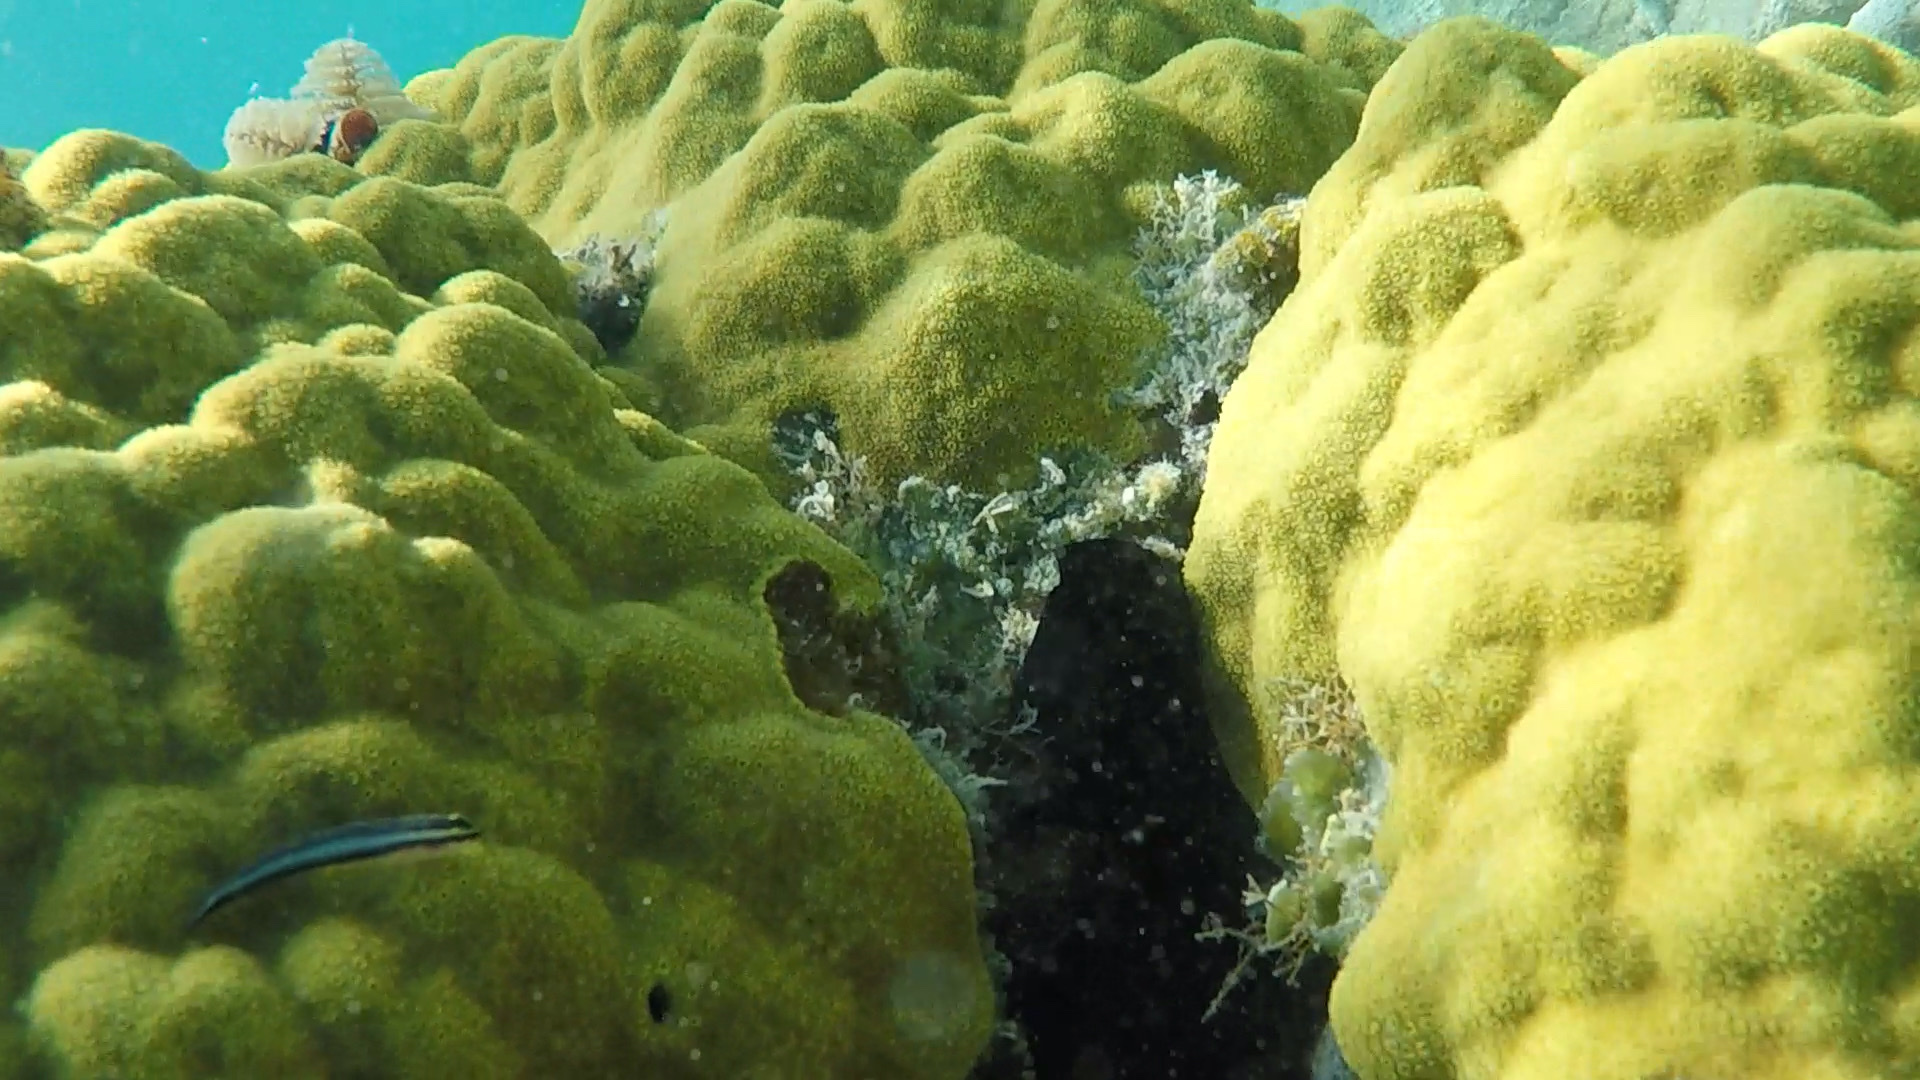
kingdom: Animalia
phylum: Cnidaria
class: Anthozoa
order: Scleractinia
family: Poritidae
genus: Porites
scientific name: Porites astreoides
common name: Mustard hill coral
